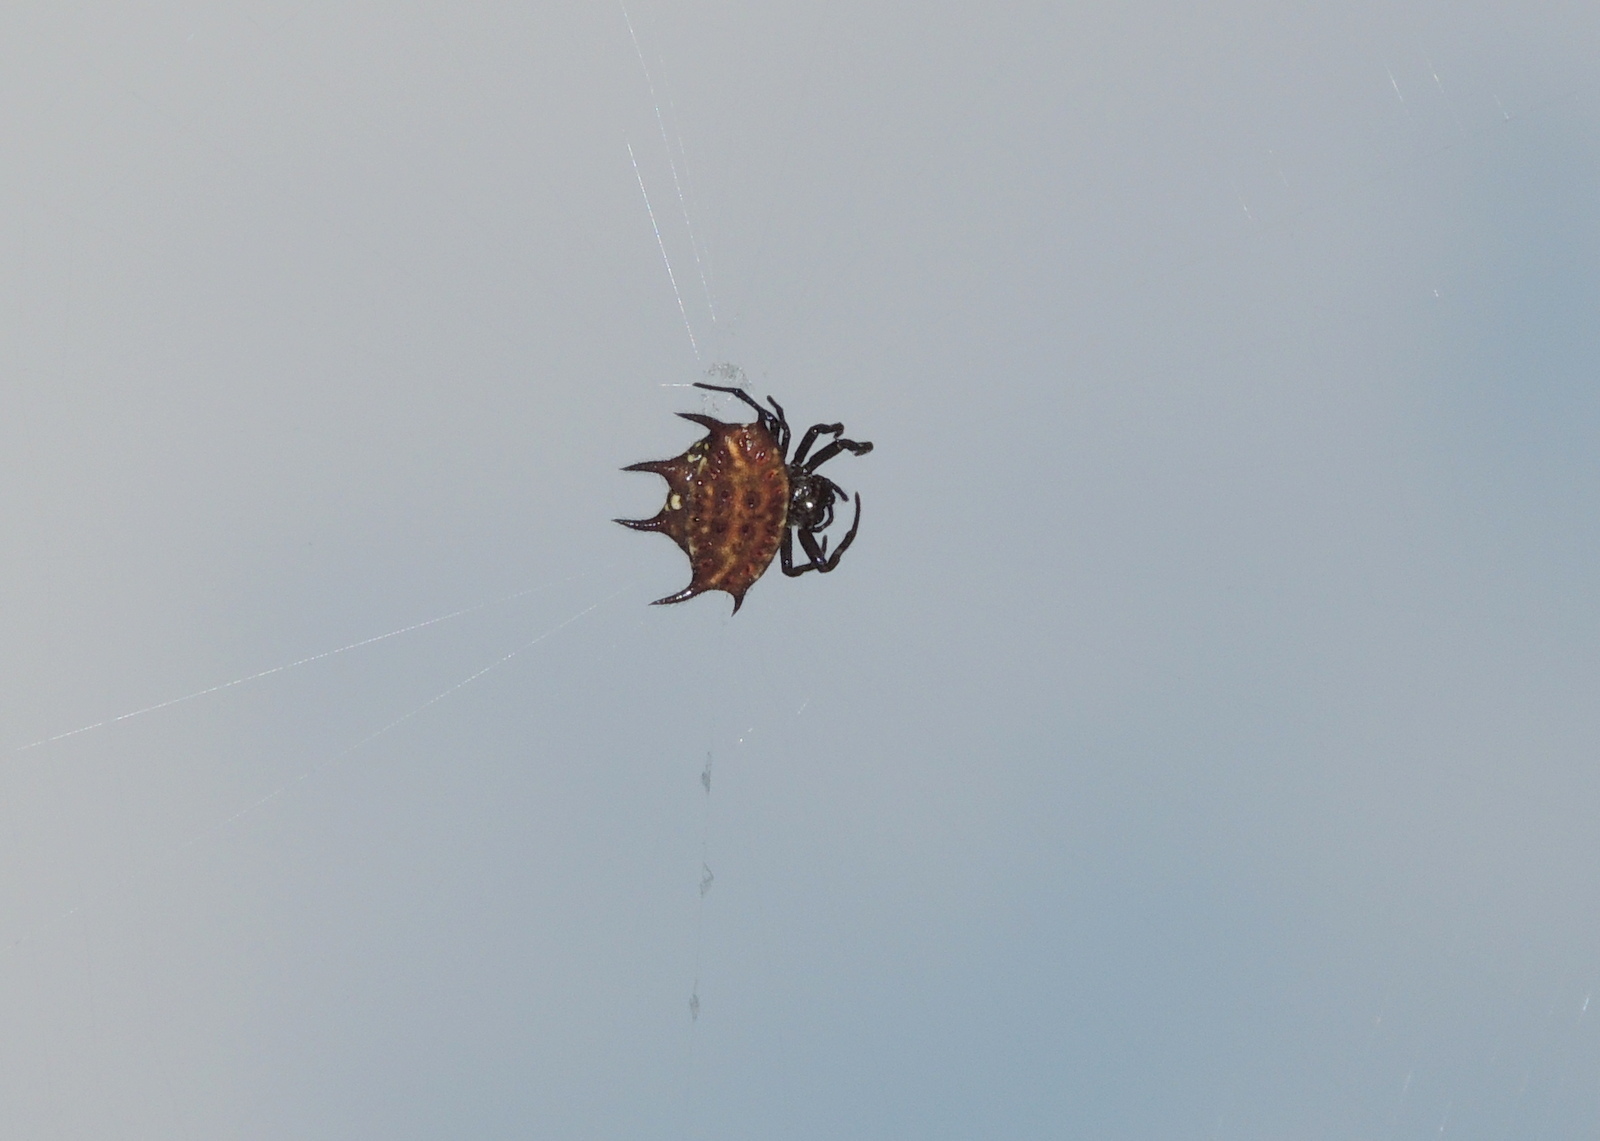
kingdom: Animalia
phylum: Arthropoda
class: Arachnida
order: Araneae
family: Araneidae
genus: Gasteracantha
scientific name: Gasteracantha curvispina
